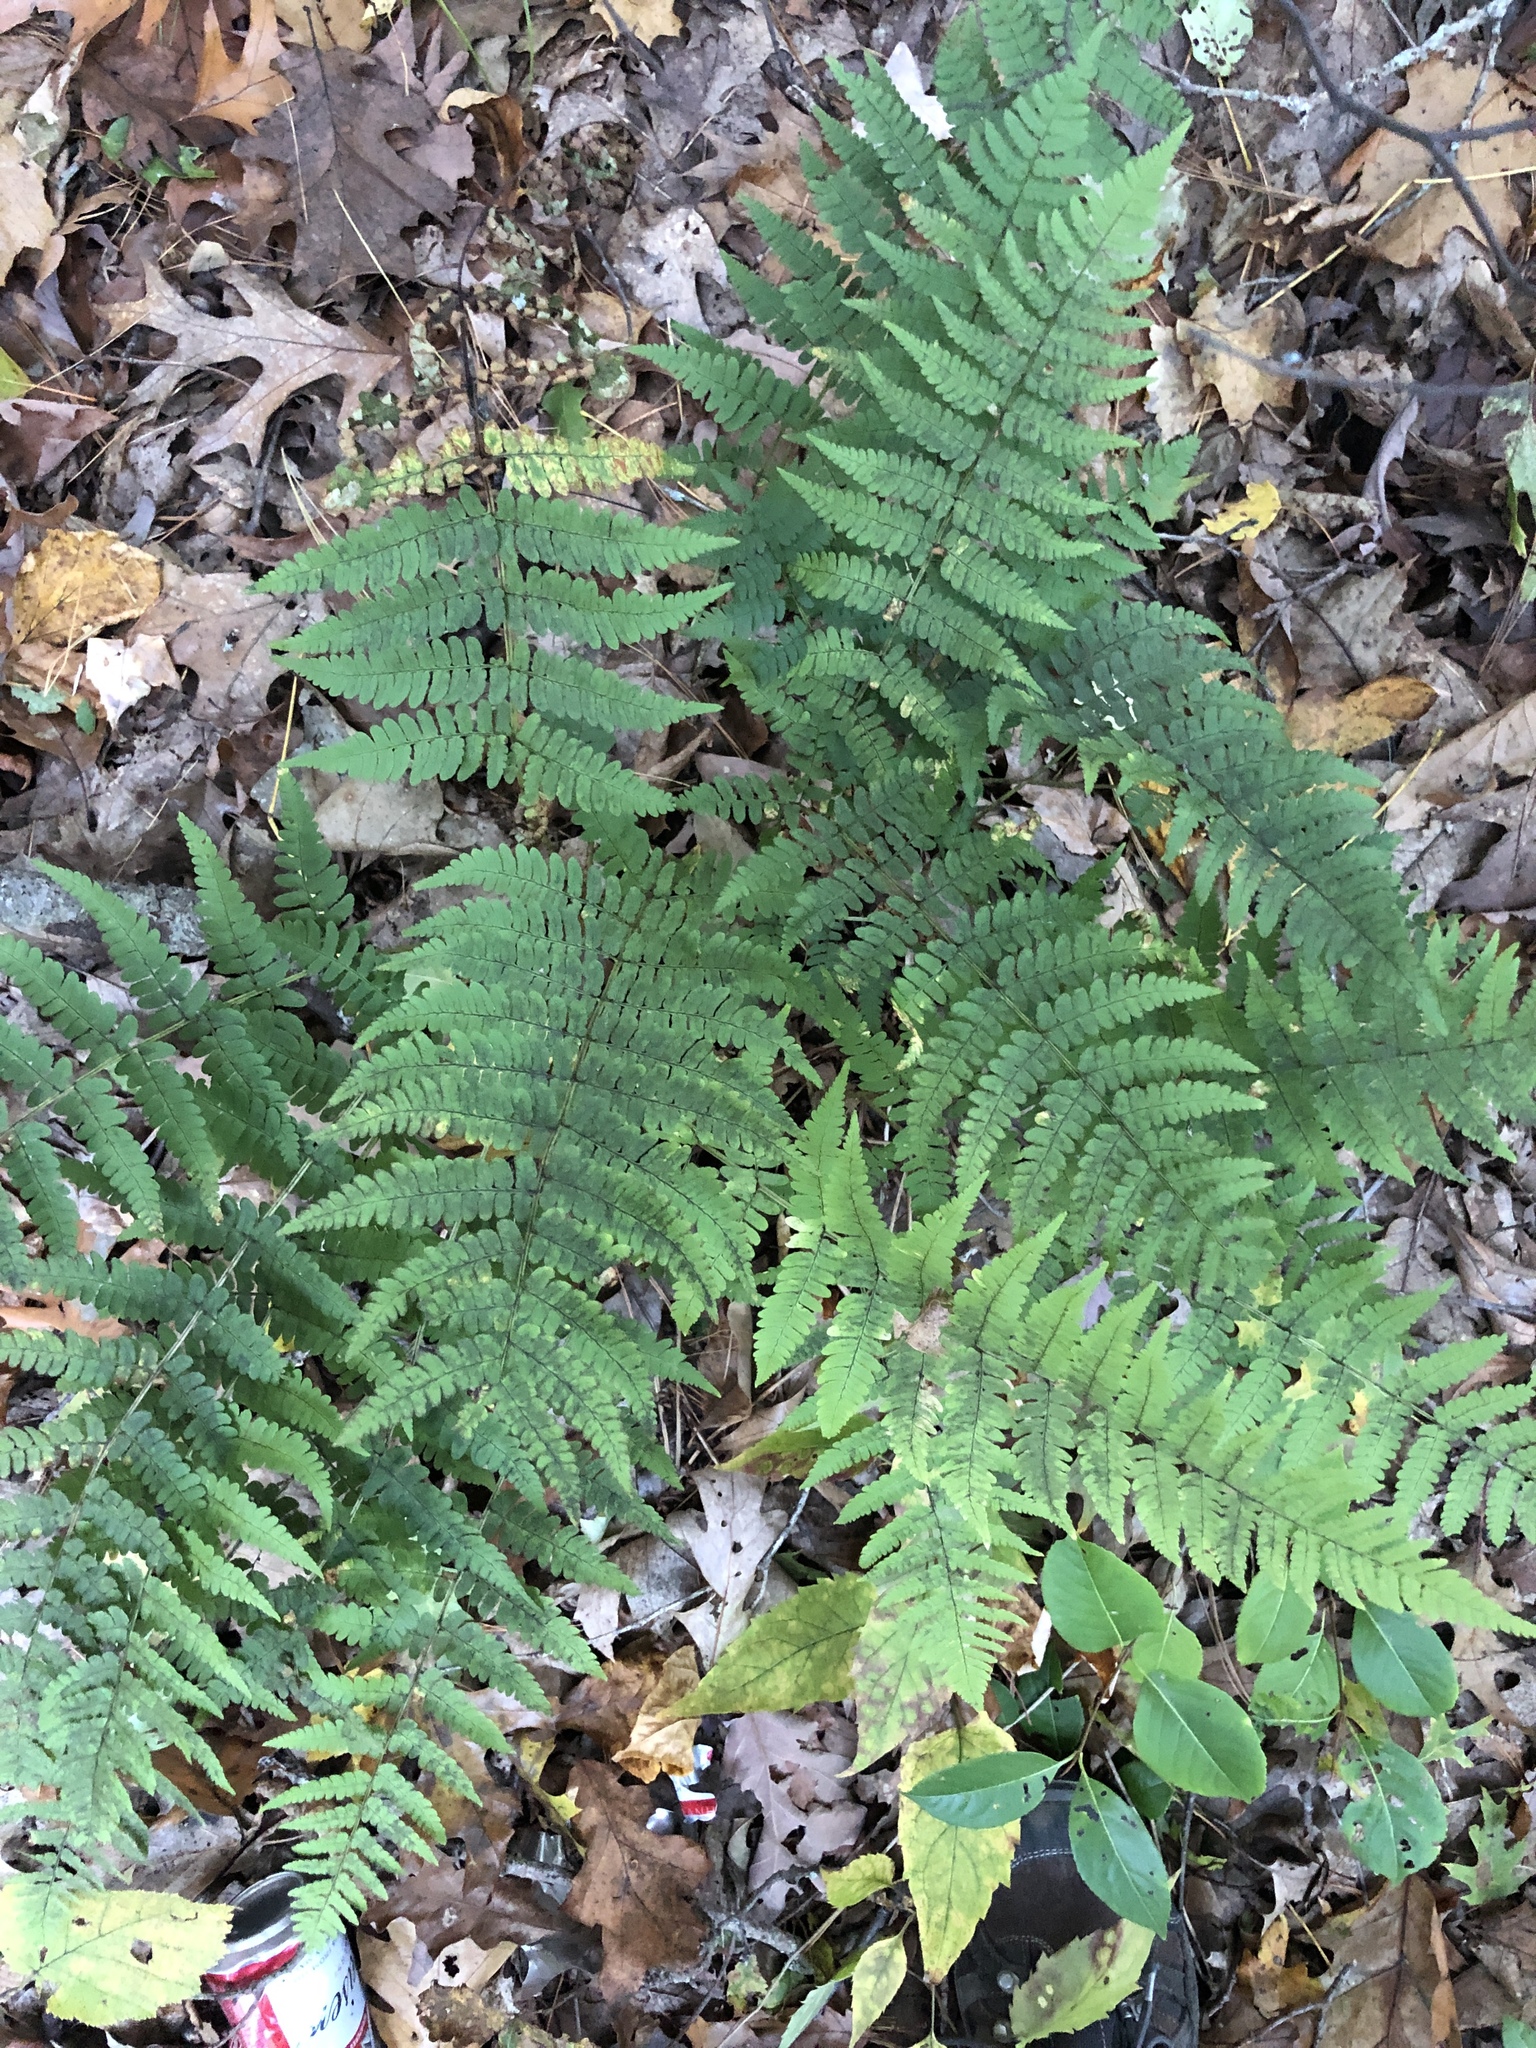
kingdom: Plantae
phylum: Tracheophyta
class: Polypodiopsida
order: Polypodiales
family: Dryopteridaceae
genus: Dryopteris
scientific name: Dryopteris marginalis
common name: Marginal wood fern
